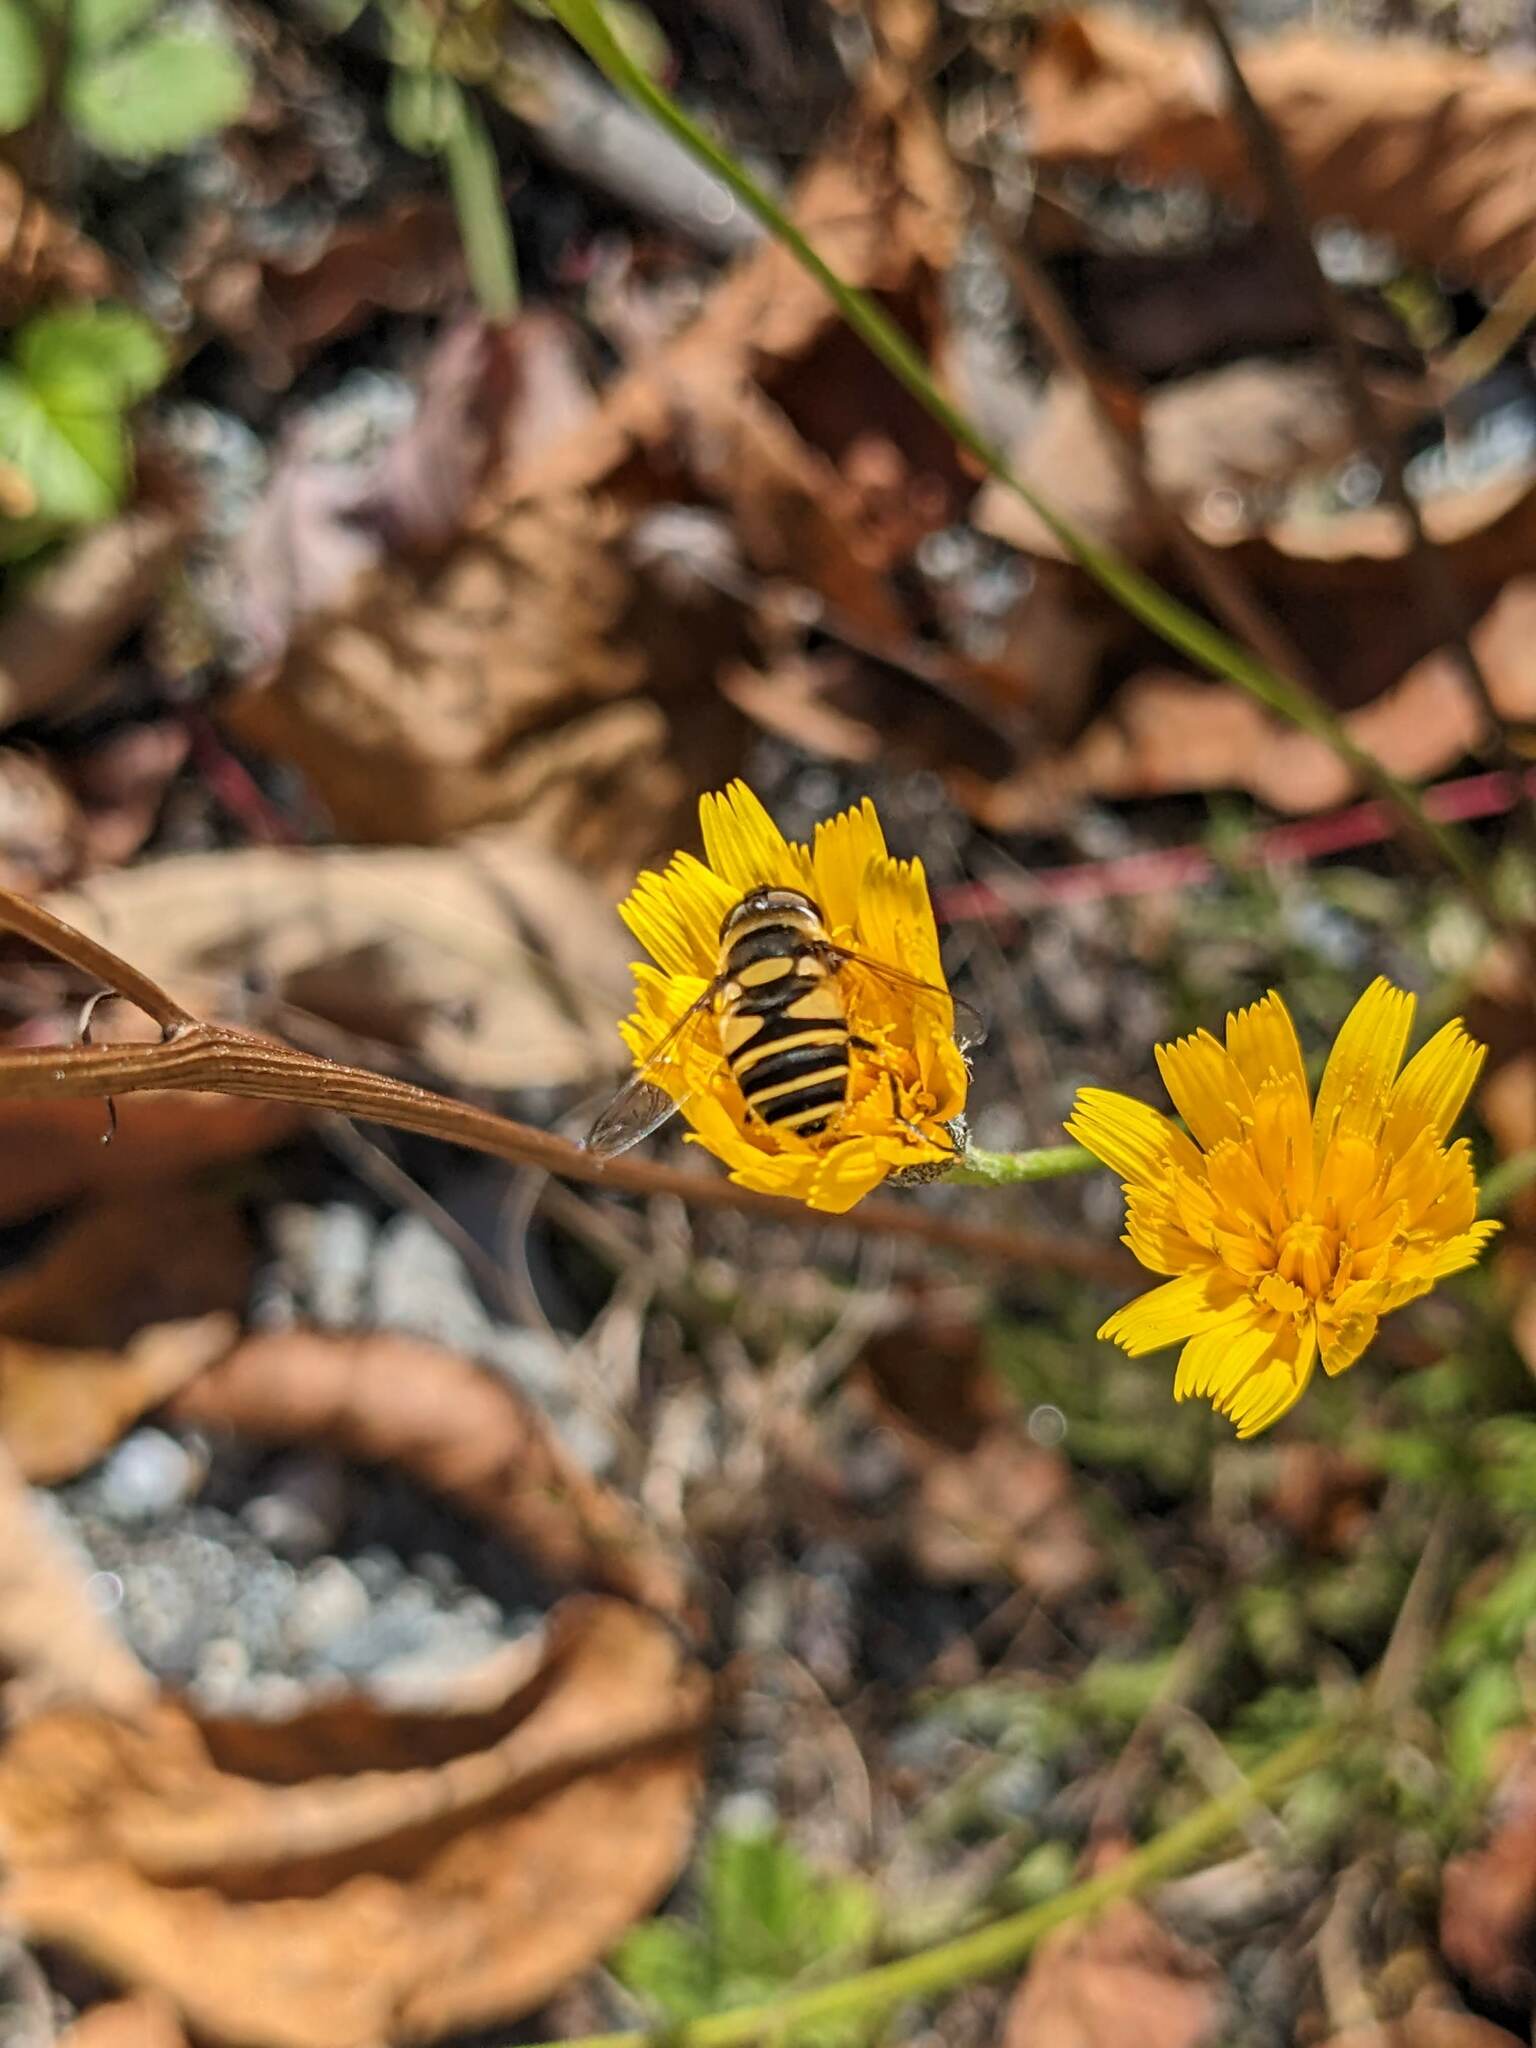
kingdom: Animalia
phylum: Arthropoda
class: Insecta
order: Diptera
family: Syrphidae
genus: Eristalis
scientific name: Eristalis transversa
